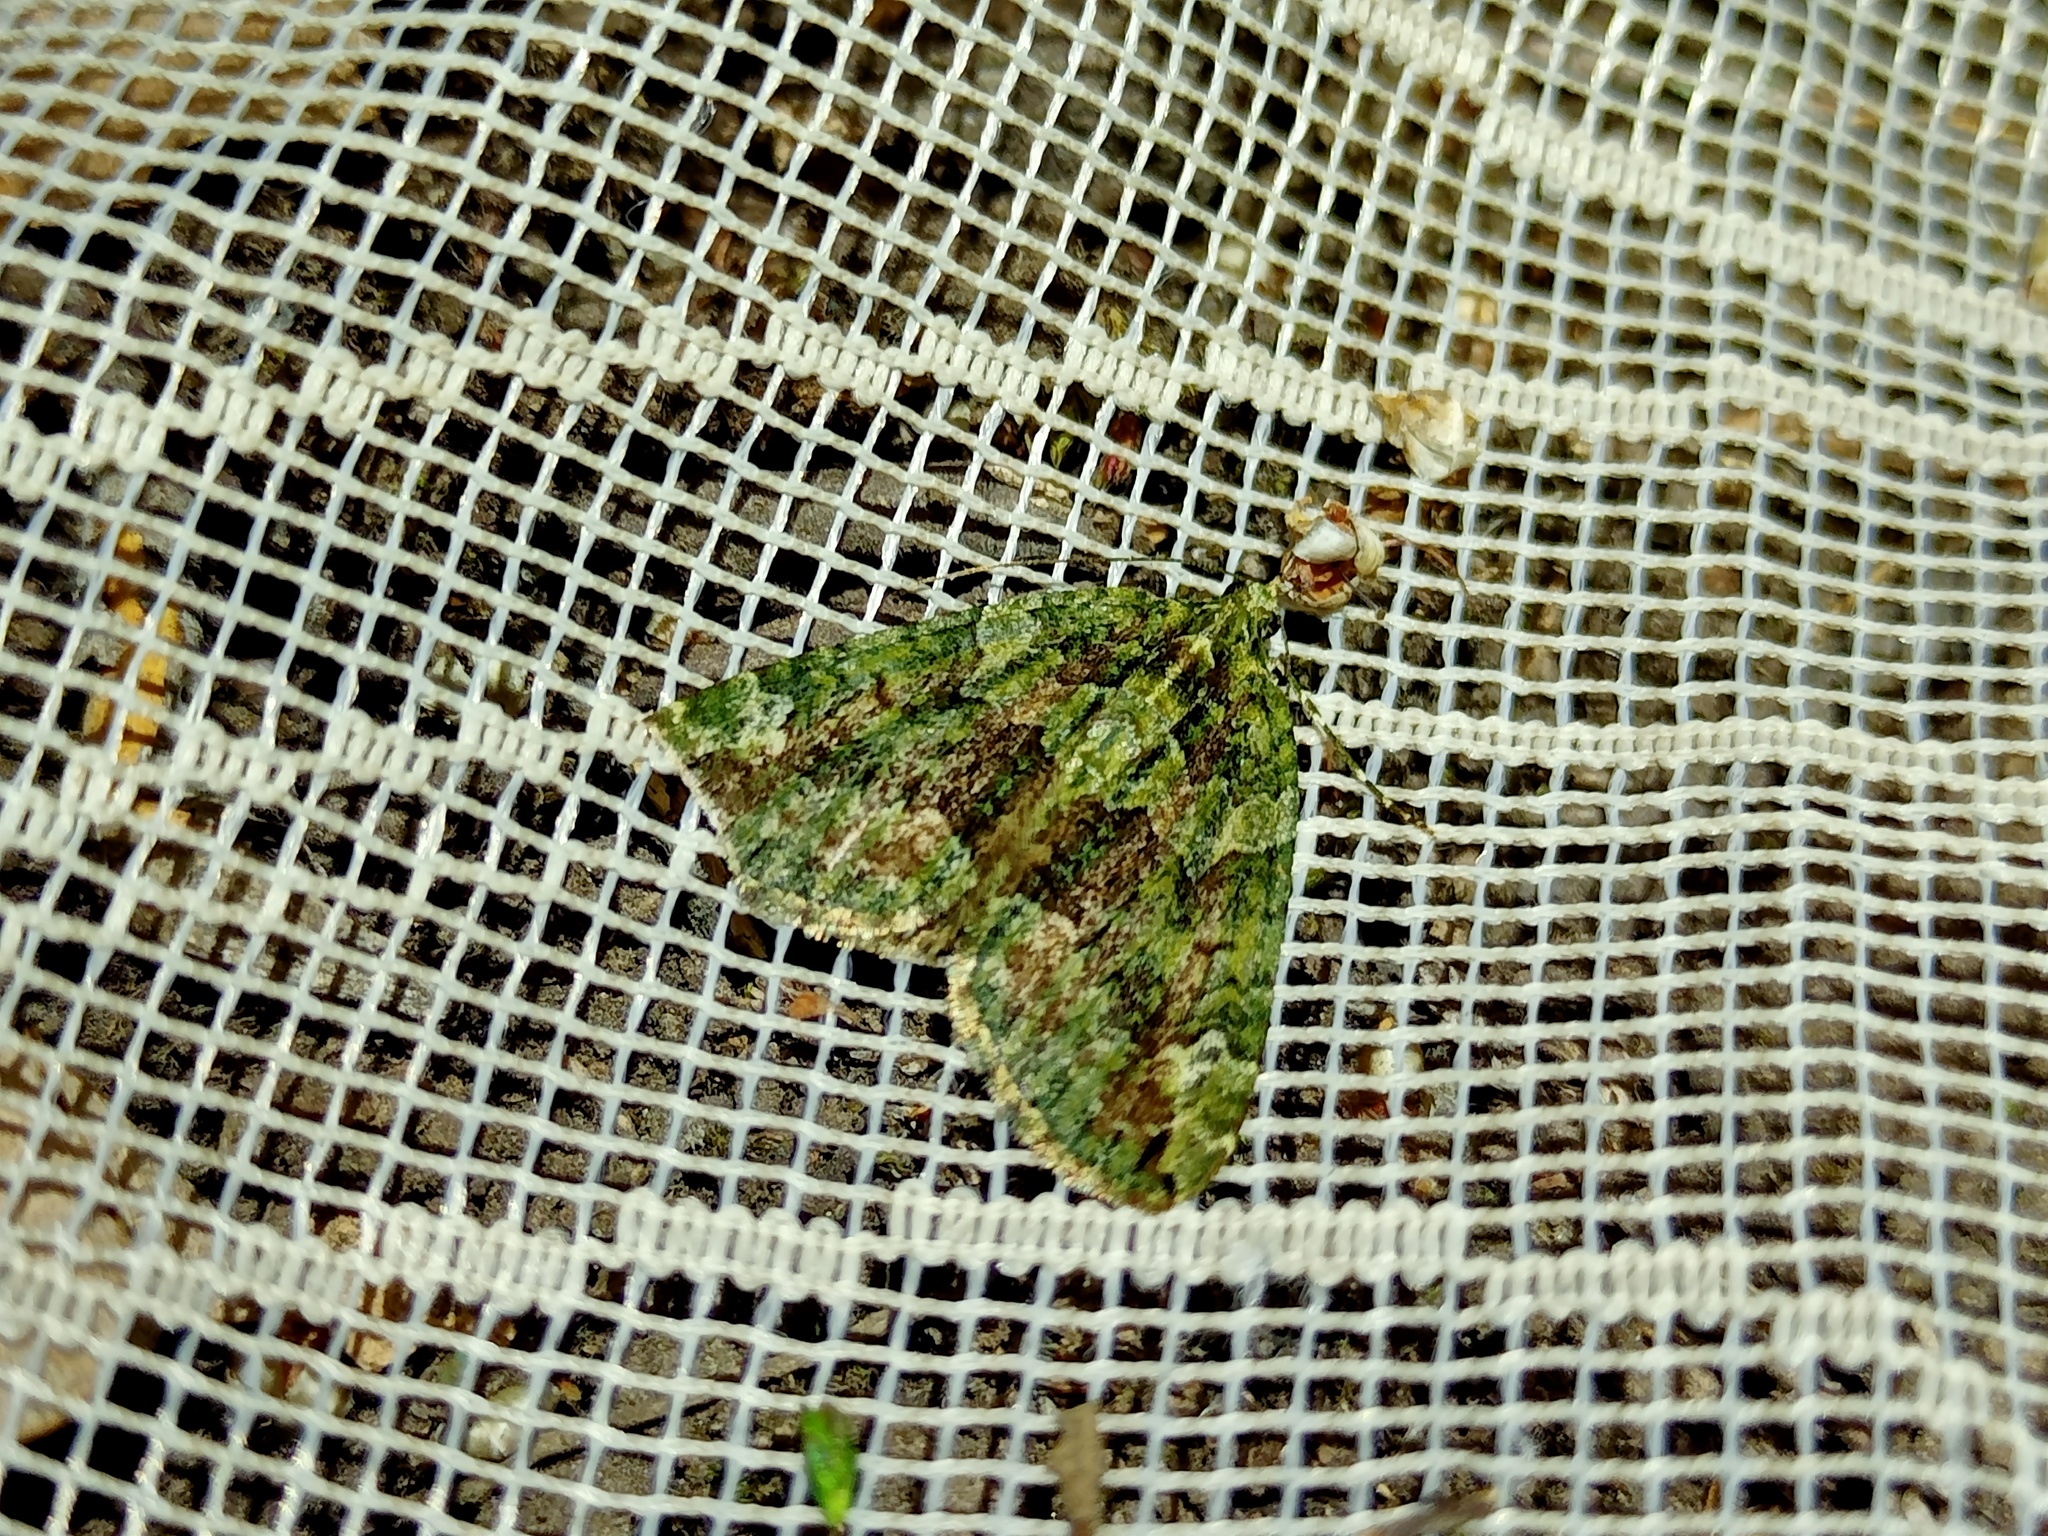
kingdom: Animalia
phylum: Arthropoda
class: Insecta
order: Lepidoptera
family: Geometridae
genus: Chloroclysta
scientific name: Chloroclysta siterata
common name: Red-green carpet
